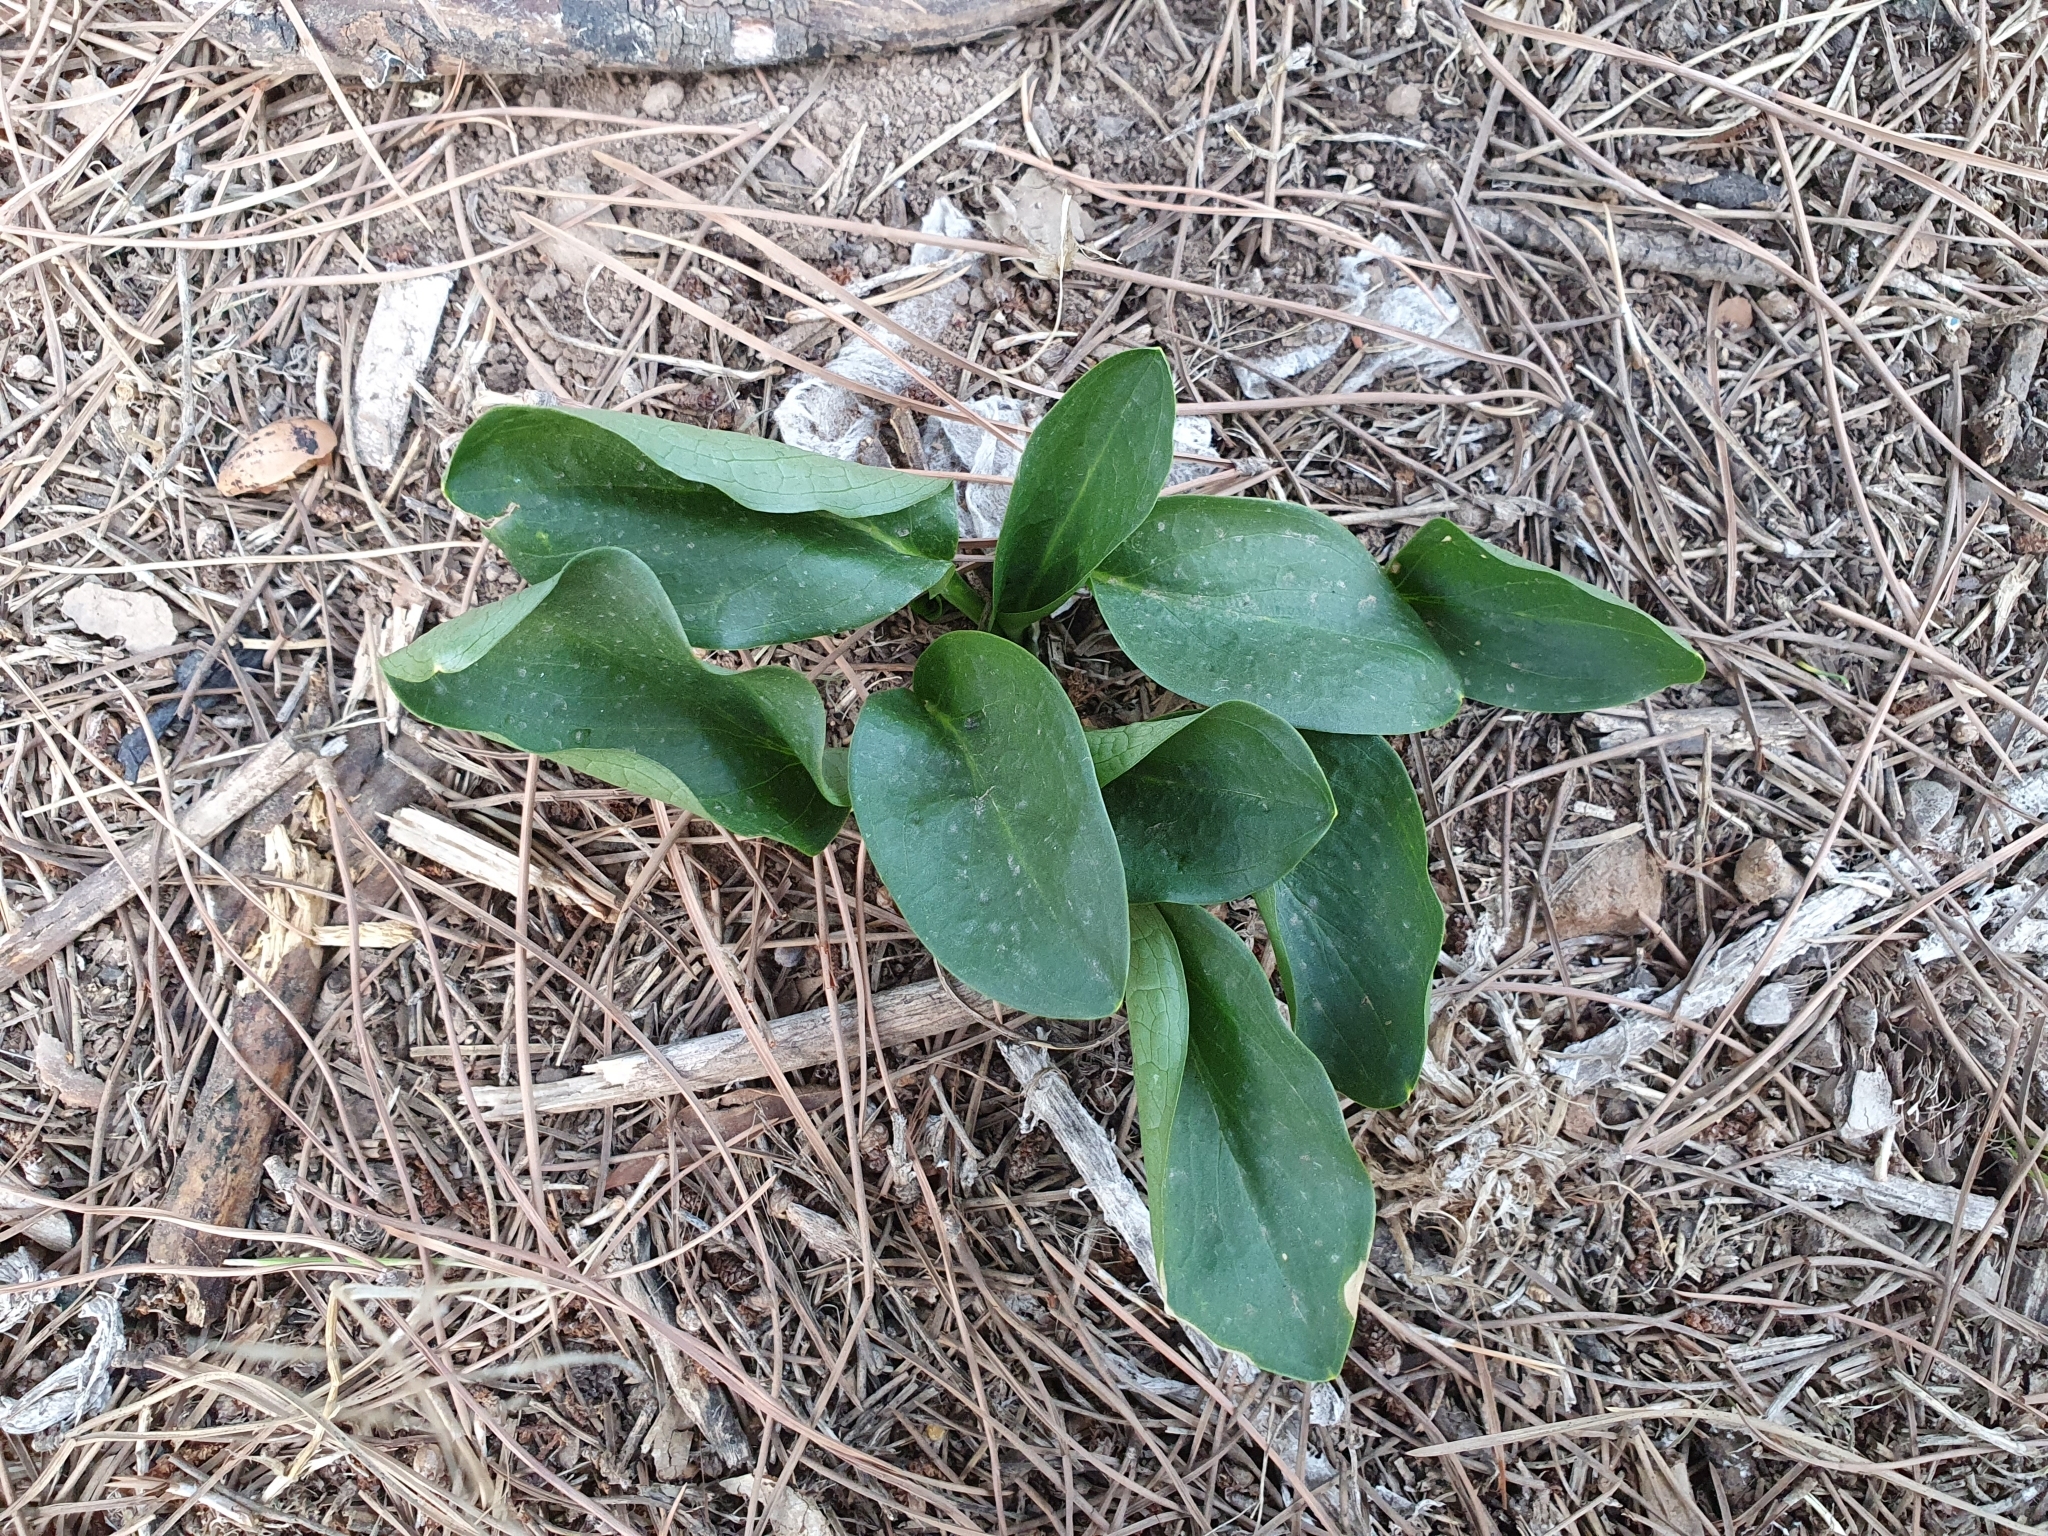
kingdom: Plantae
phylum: Tracheophyta
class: Liliopsida
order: Alismatales
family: Araceae
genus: Ambrosina
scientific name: Ambrosina bassii
